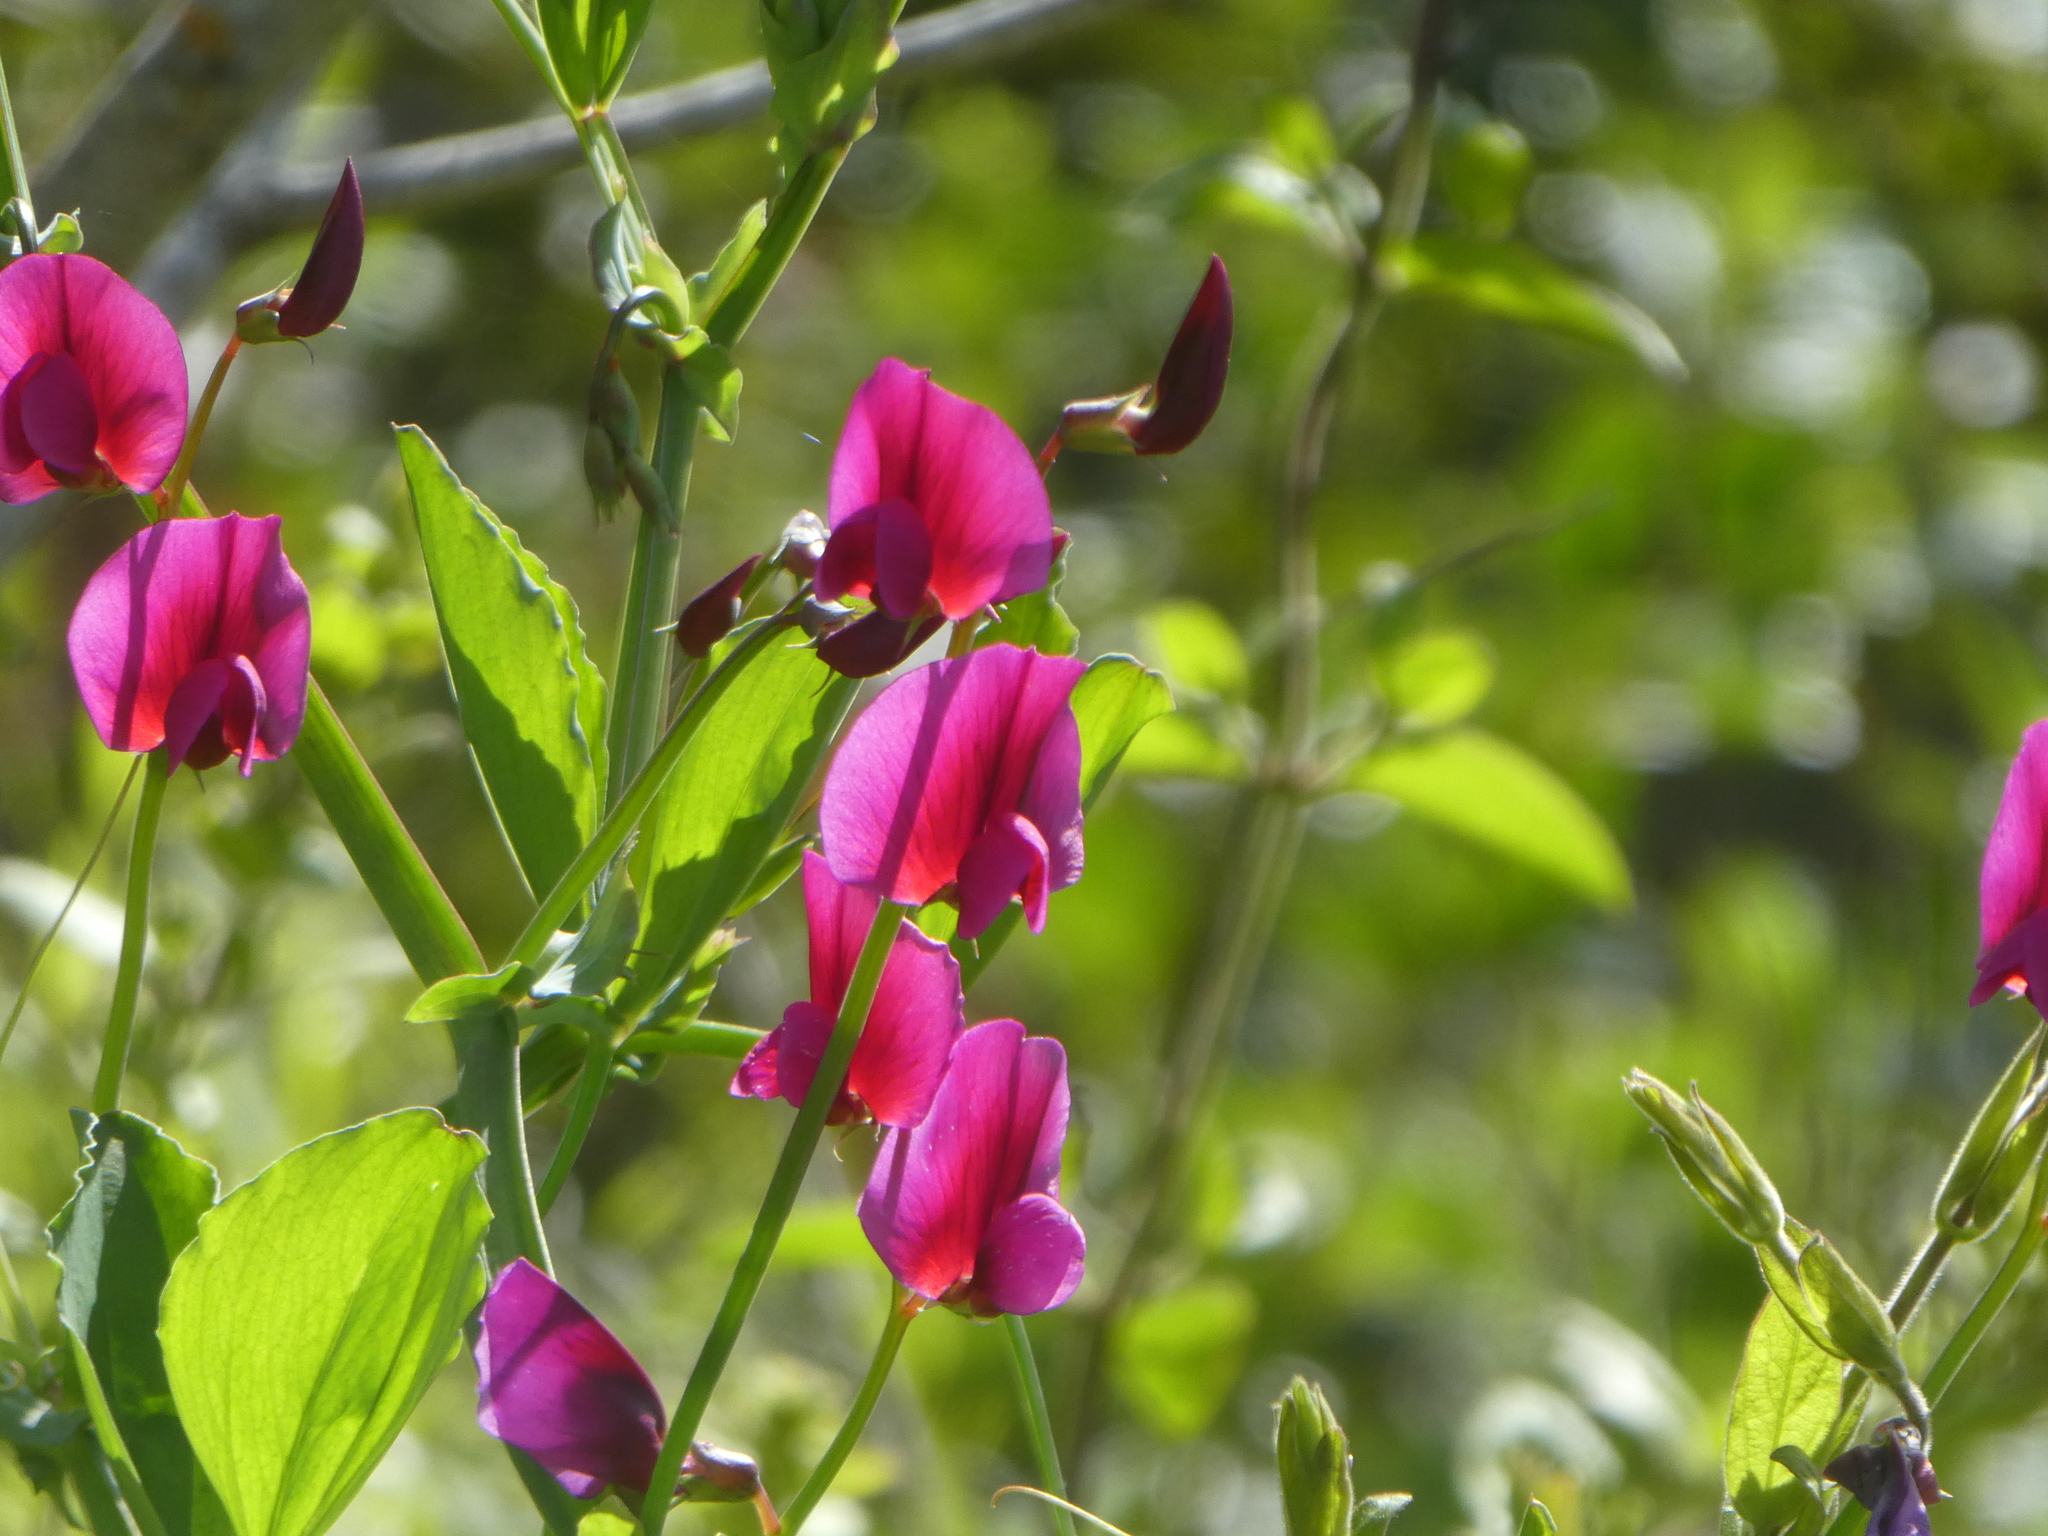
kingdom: Plantae
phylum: Tracheophyta
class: Magnoliopsida
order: Fabales
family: Fabaceae
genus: Lathyrus
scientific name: Lathyrus tingitanus
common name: Tangier pea
